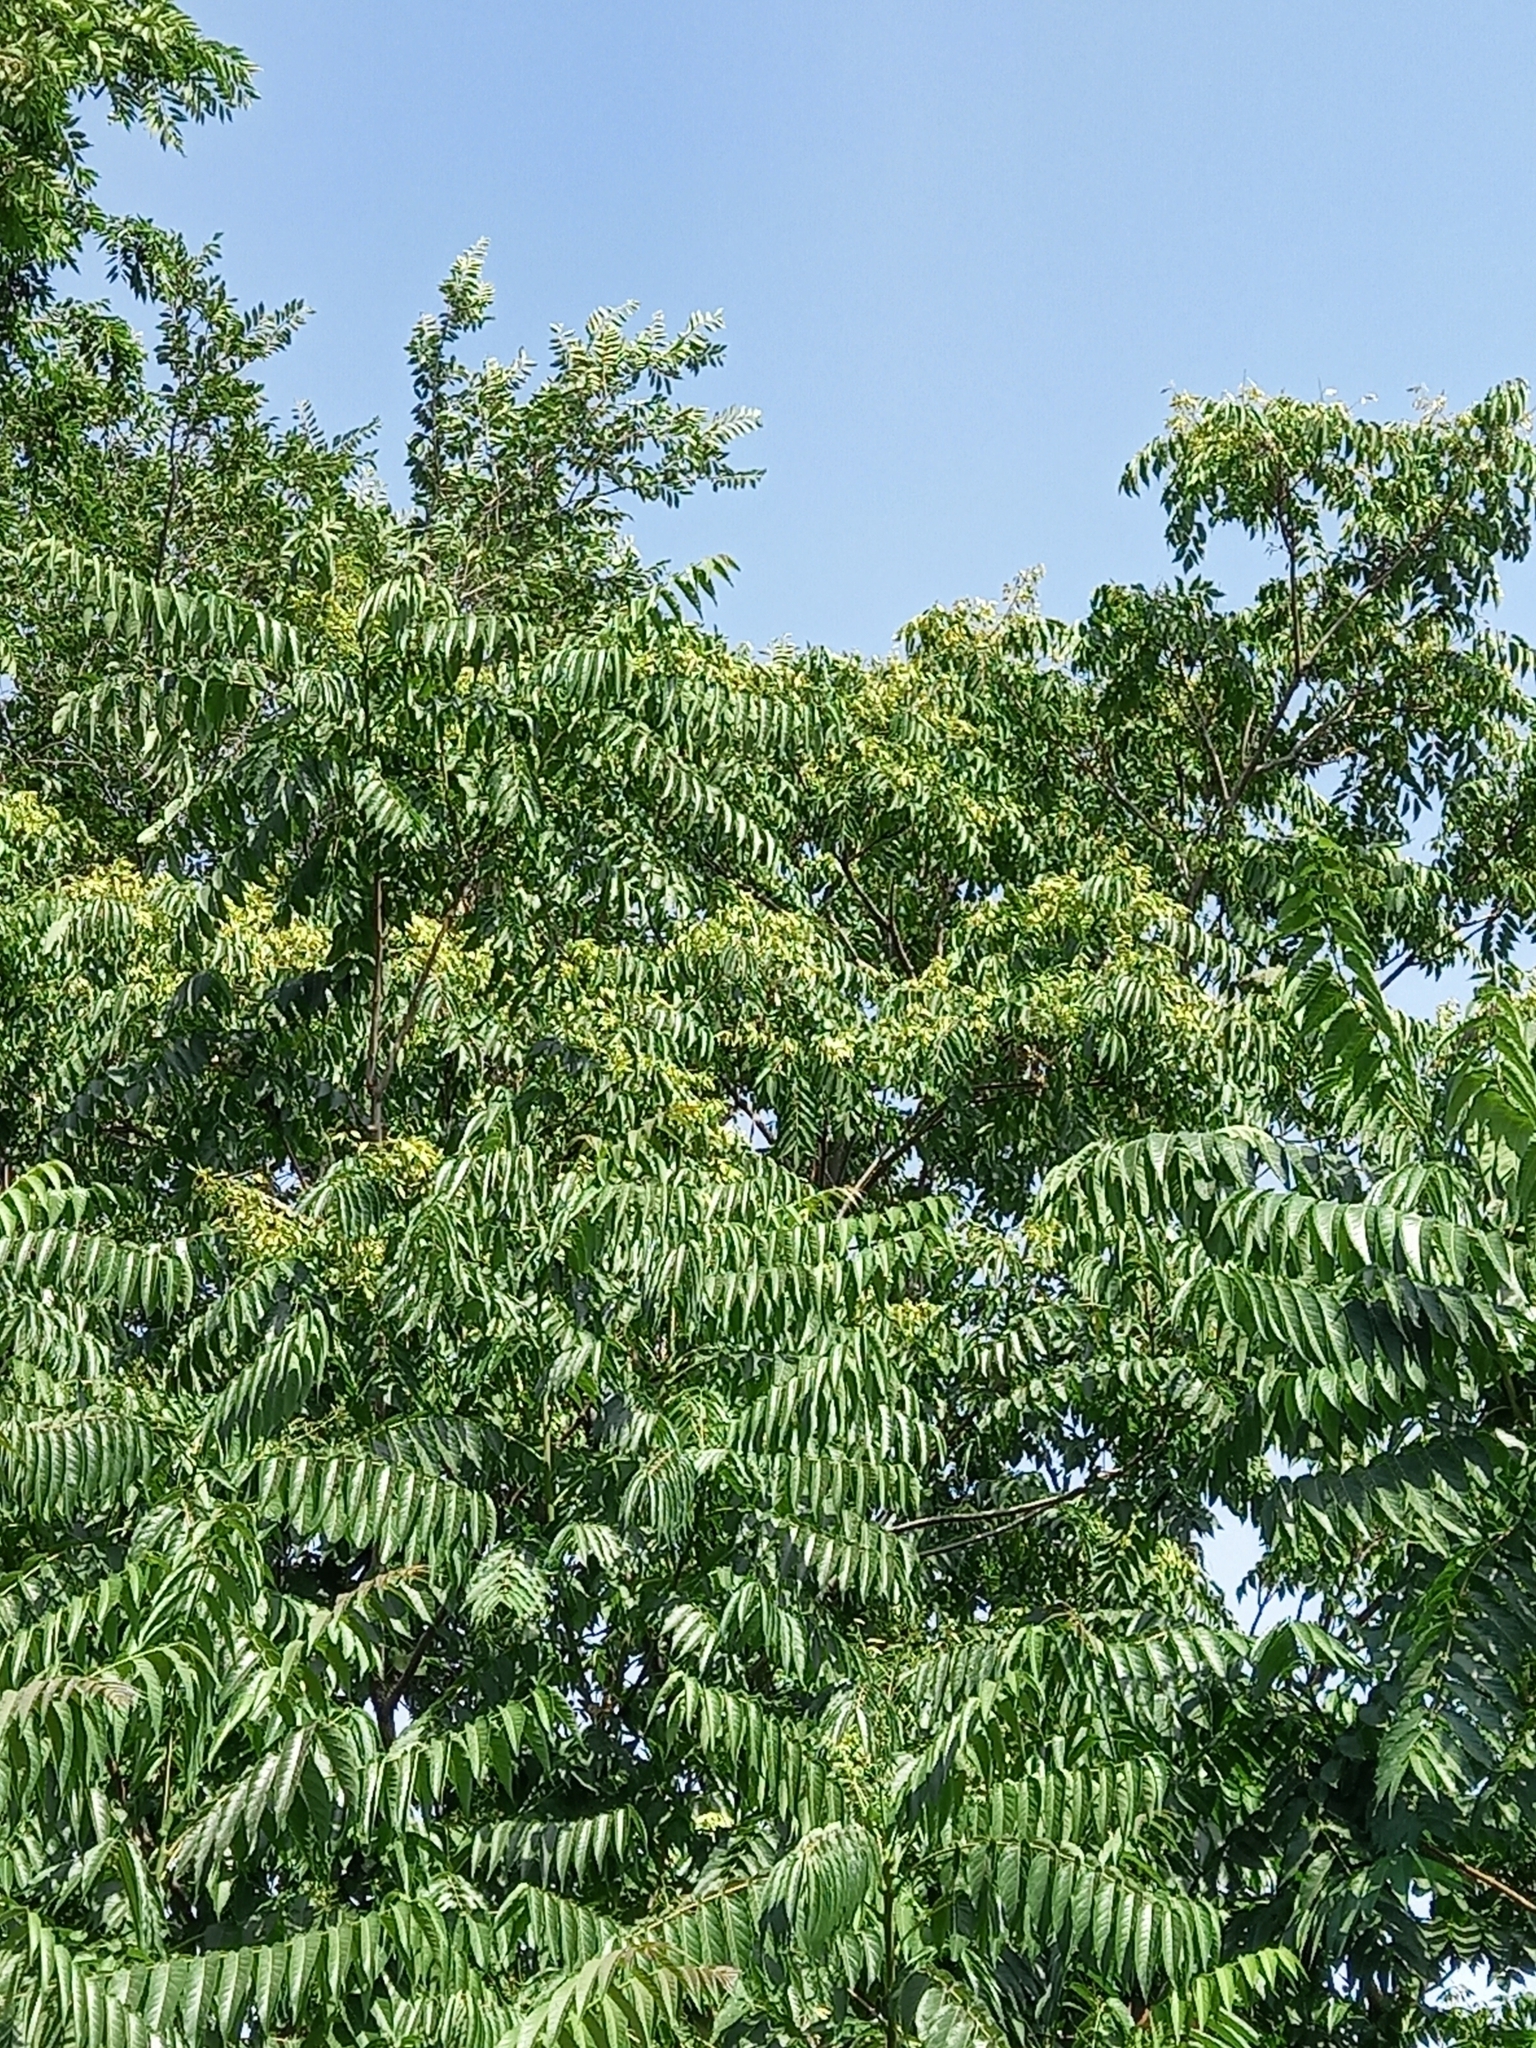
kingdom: Plantae
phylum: Tracheophyta
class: Magnoliopsida
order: Sapindales
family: Simaroubaceae
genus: Ailanthus
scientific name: Ailanthus altissima
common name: Tree-of-heaven
